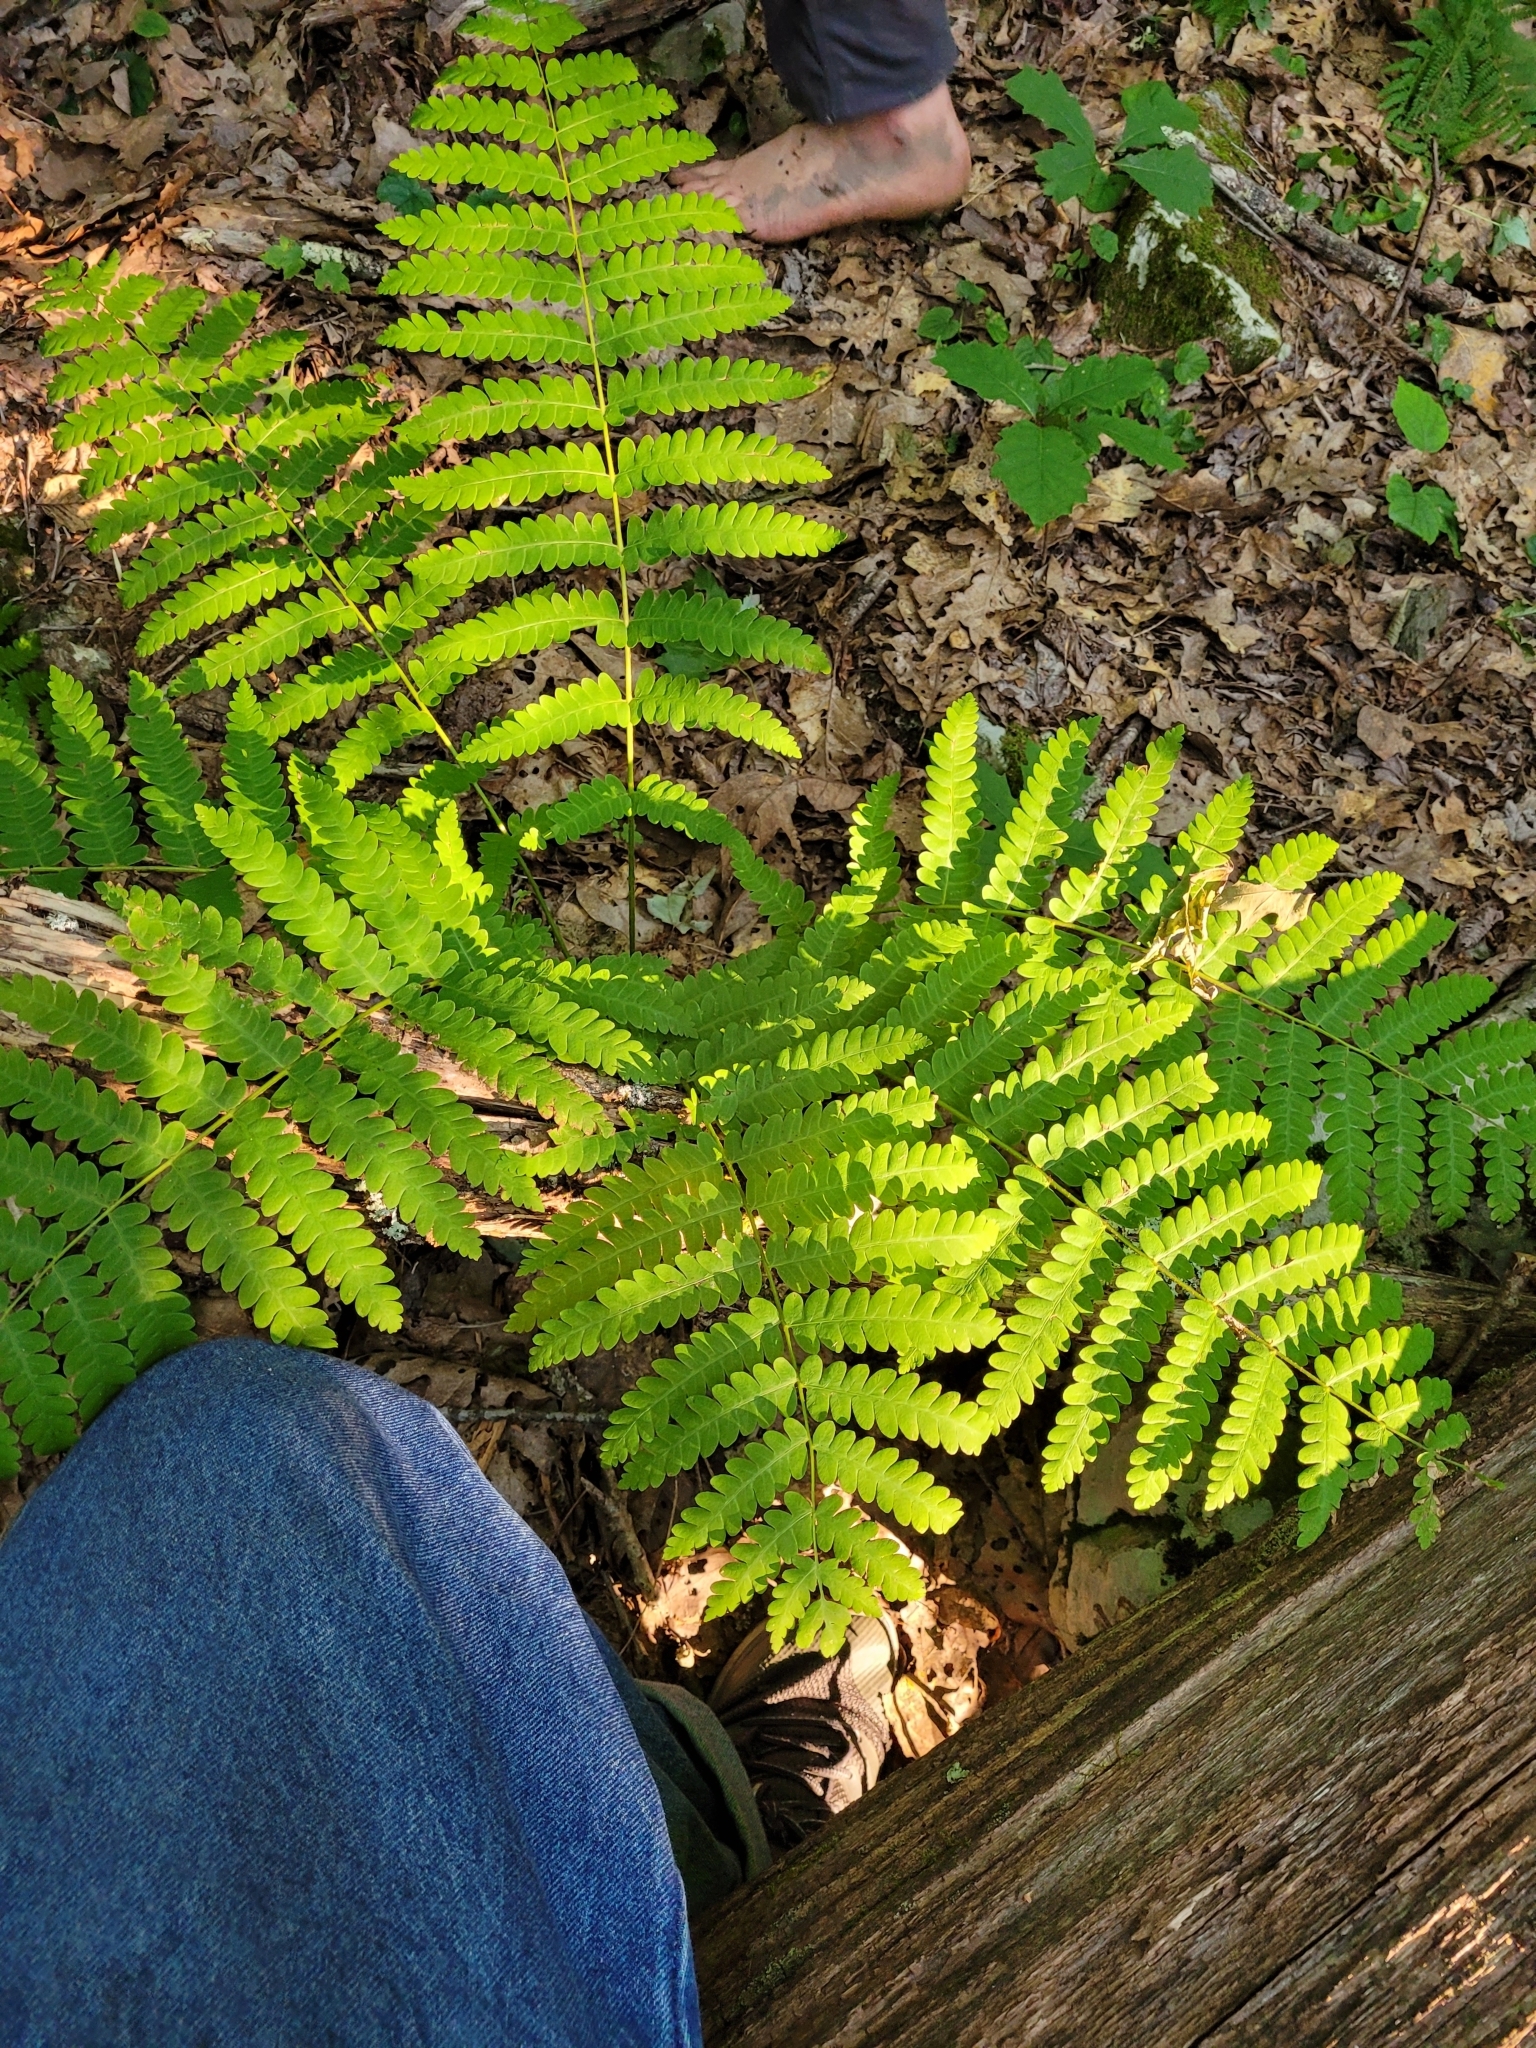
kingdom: Plantae
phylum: Tracheophyta
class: Polypodiopsida
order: Osmundales
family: Osmundaceae
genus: Claytosmunda
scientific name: Claytosmunda claytoniana
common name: Clayton's fern
